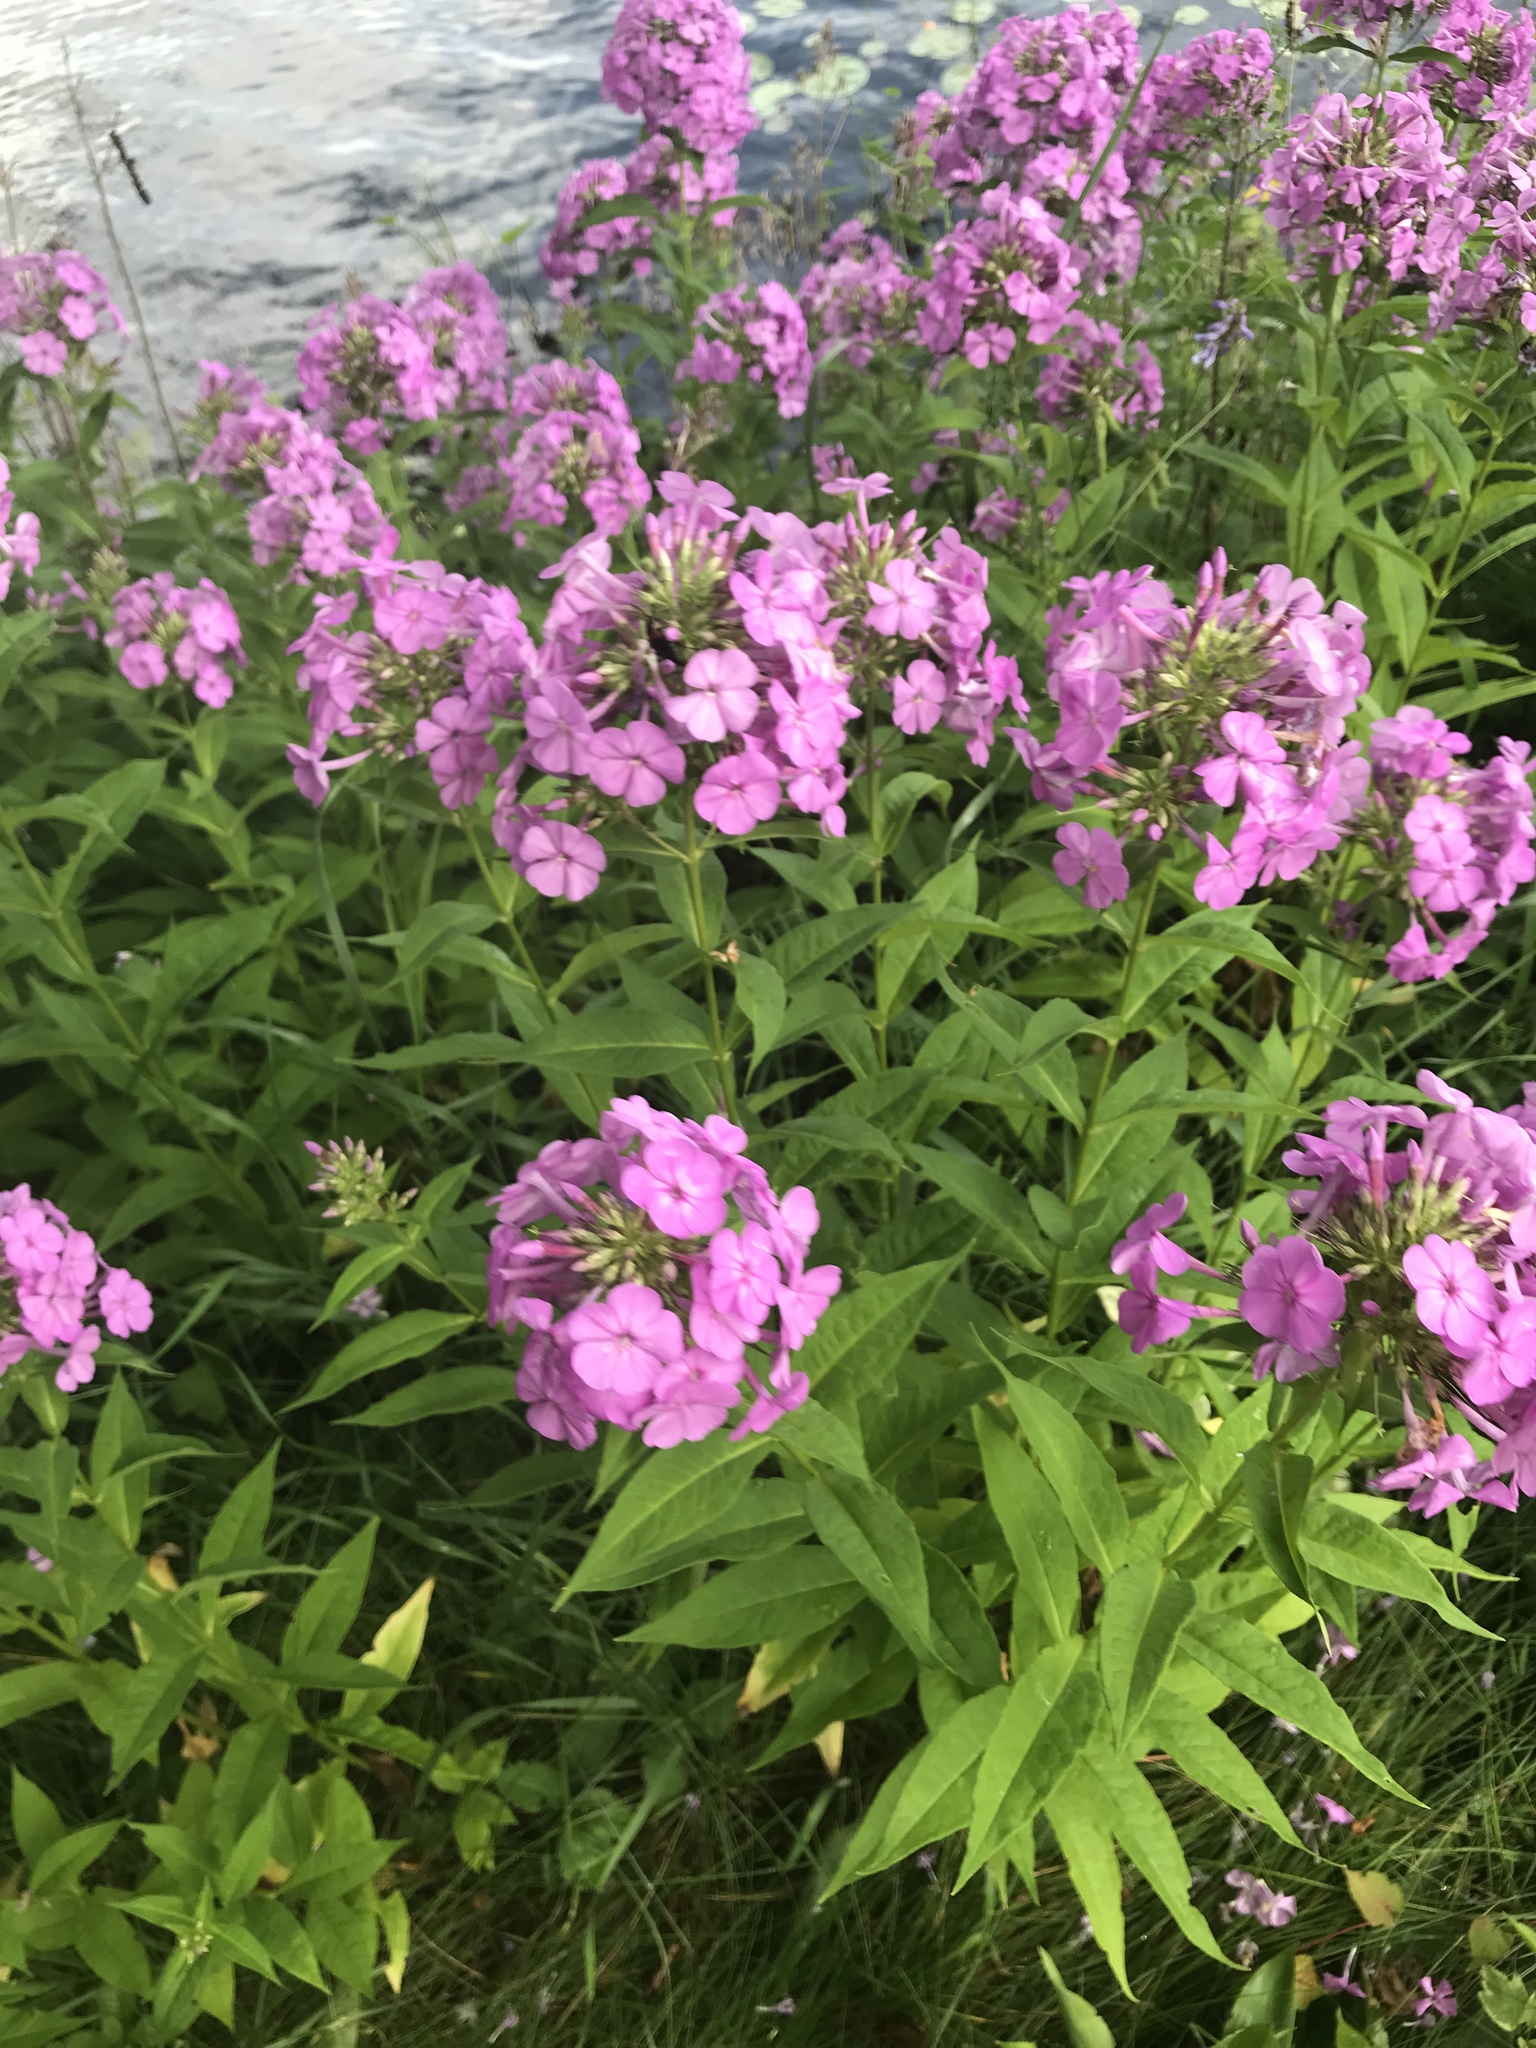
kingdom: Plantae
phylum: Tracheophyta
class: Magnoliopsida
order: Ericales
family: Polemoniaceae
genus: Phlox
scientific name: Phlox paniculata
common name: Fall phlox
